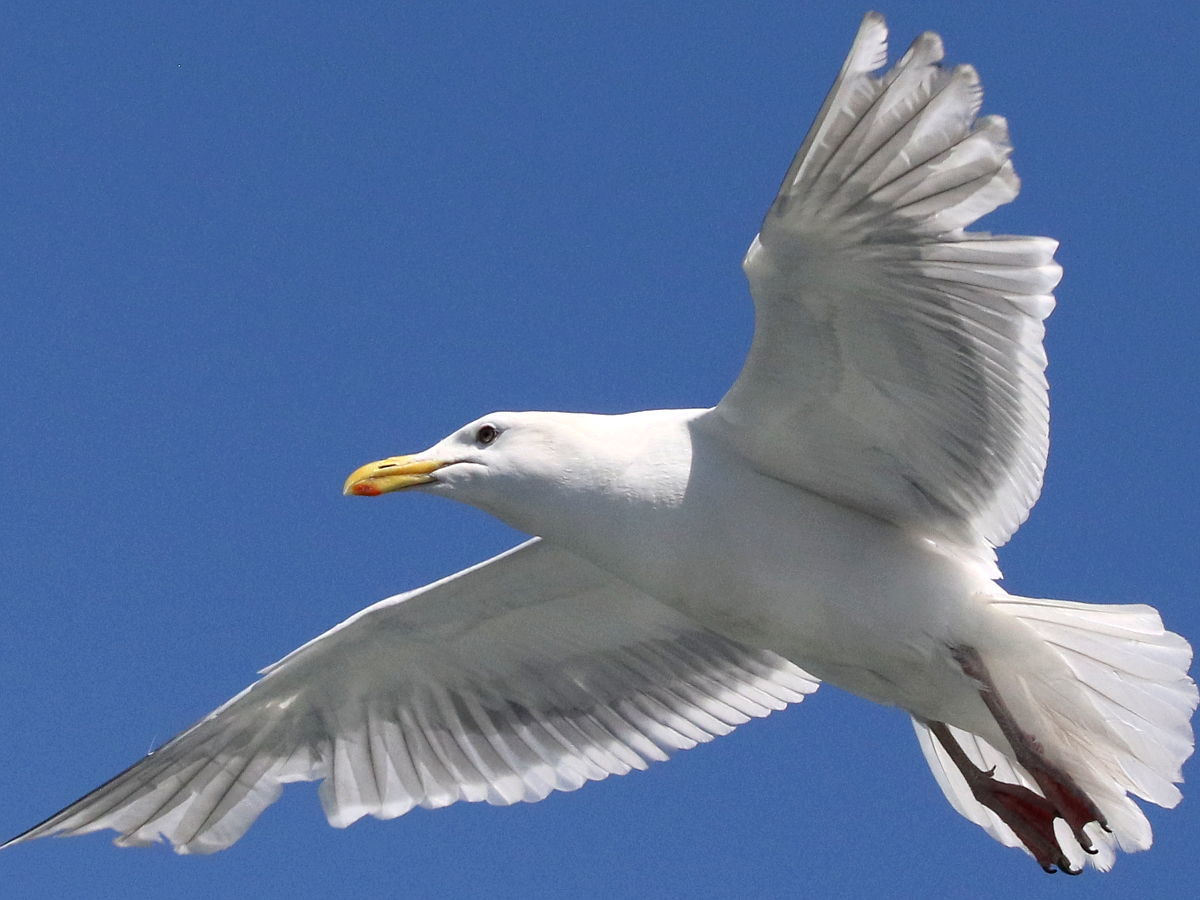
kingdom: Animalia
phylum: Chordata
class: Aves
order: Charadriiformes
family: Laridae
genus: Larus
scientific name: Larus glaucescens
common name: Glaucous-winged gull
